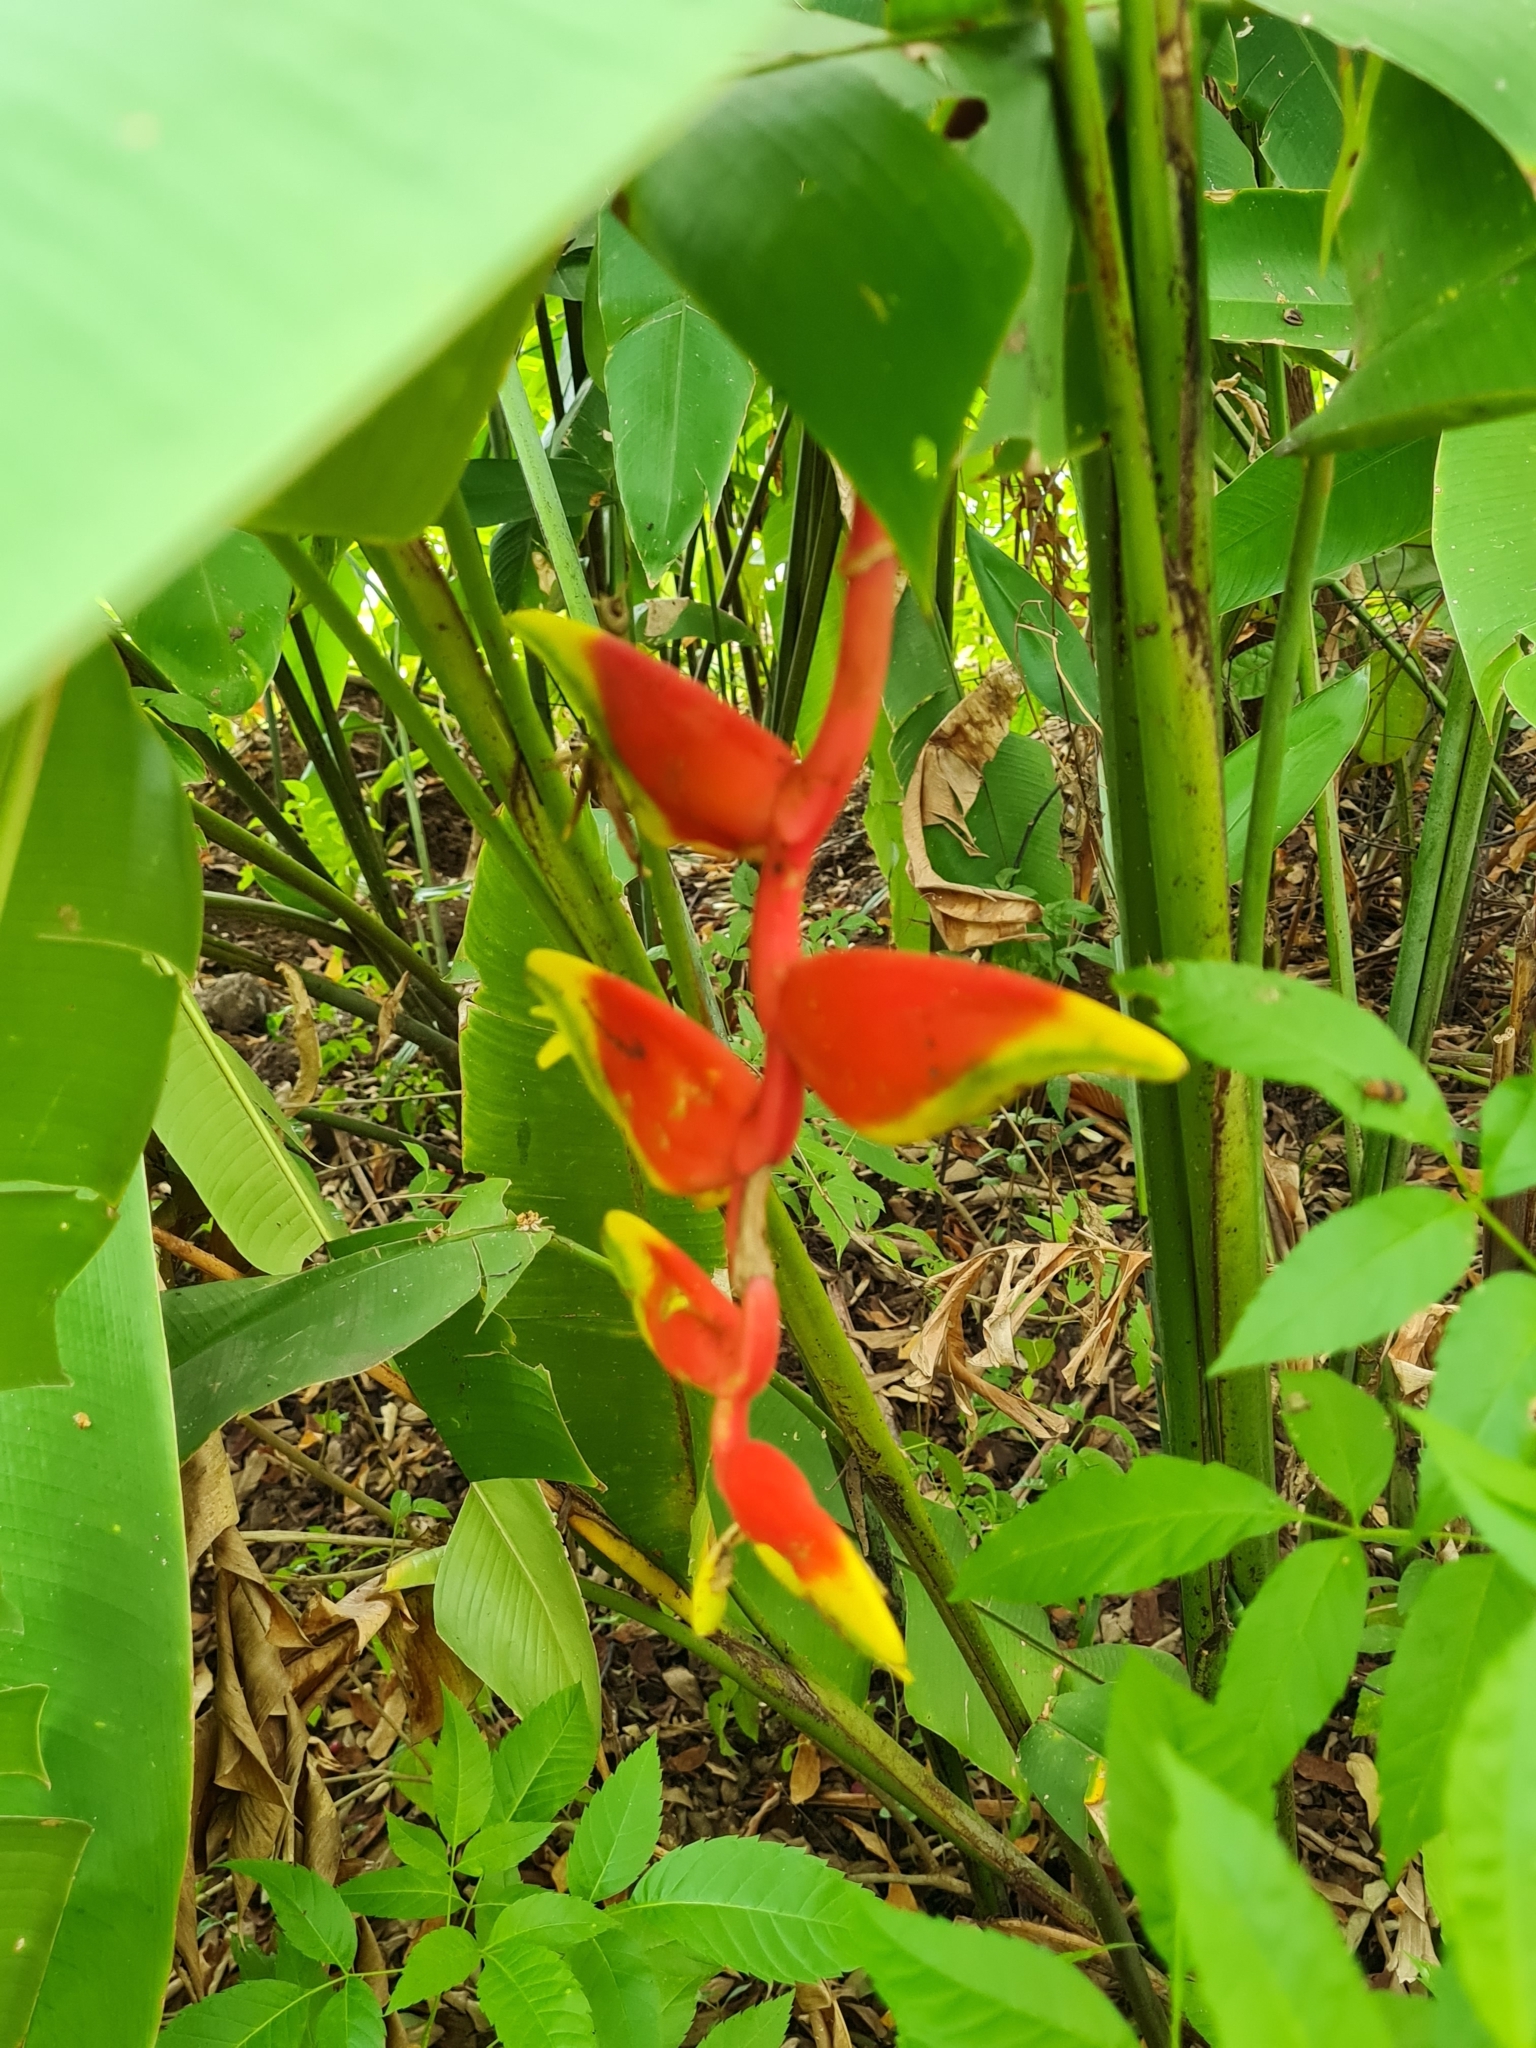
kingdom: Plantae
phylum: Tracheophyta
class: Liliopsida
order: Zingiberales
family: Heliconiaceae
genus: Heliconia
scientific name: Heliconia rostrata
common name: False bird of paradise
